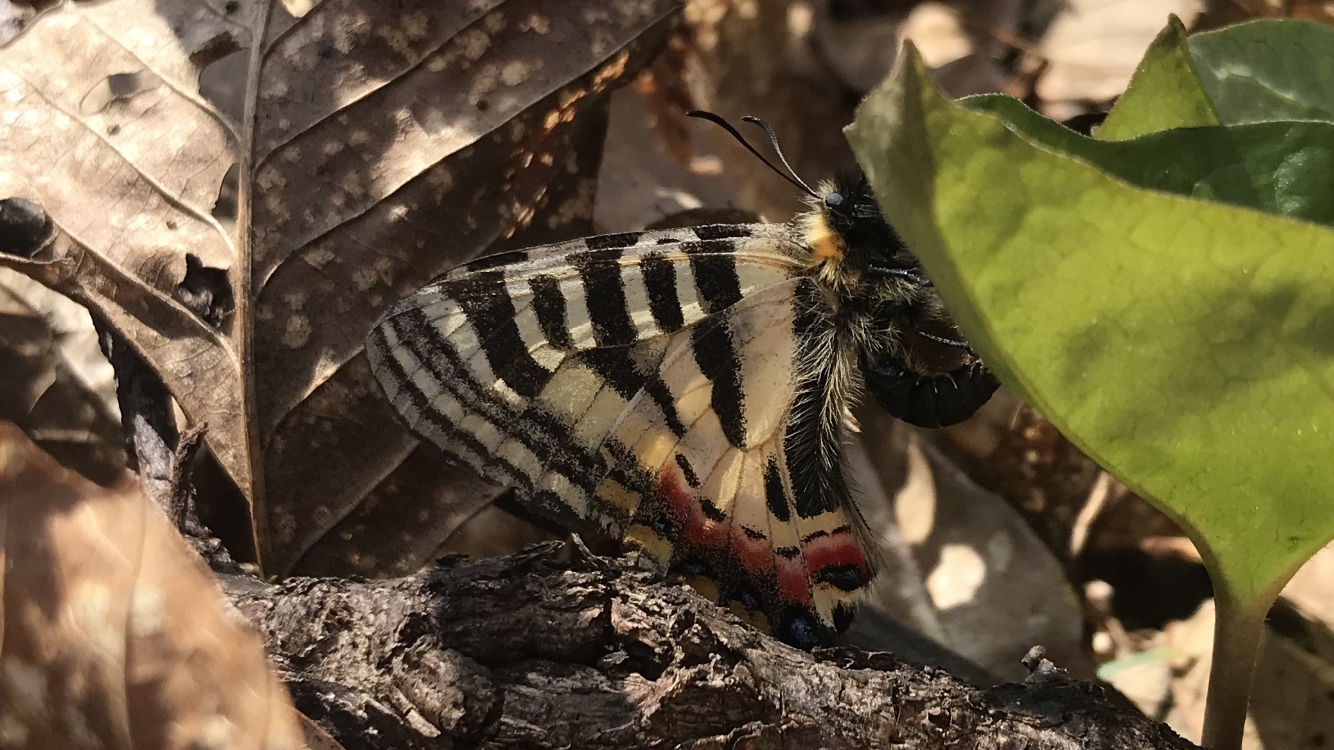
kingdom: Animalia
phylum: Arthropoda
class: Insecta
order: Lepidoptera
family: Papilionidae
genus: Luehdorfia
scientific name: Luehdorfia puziloi
